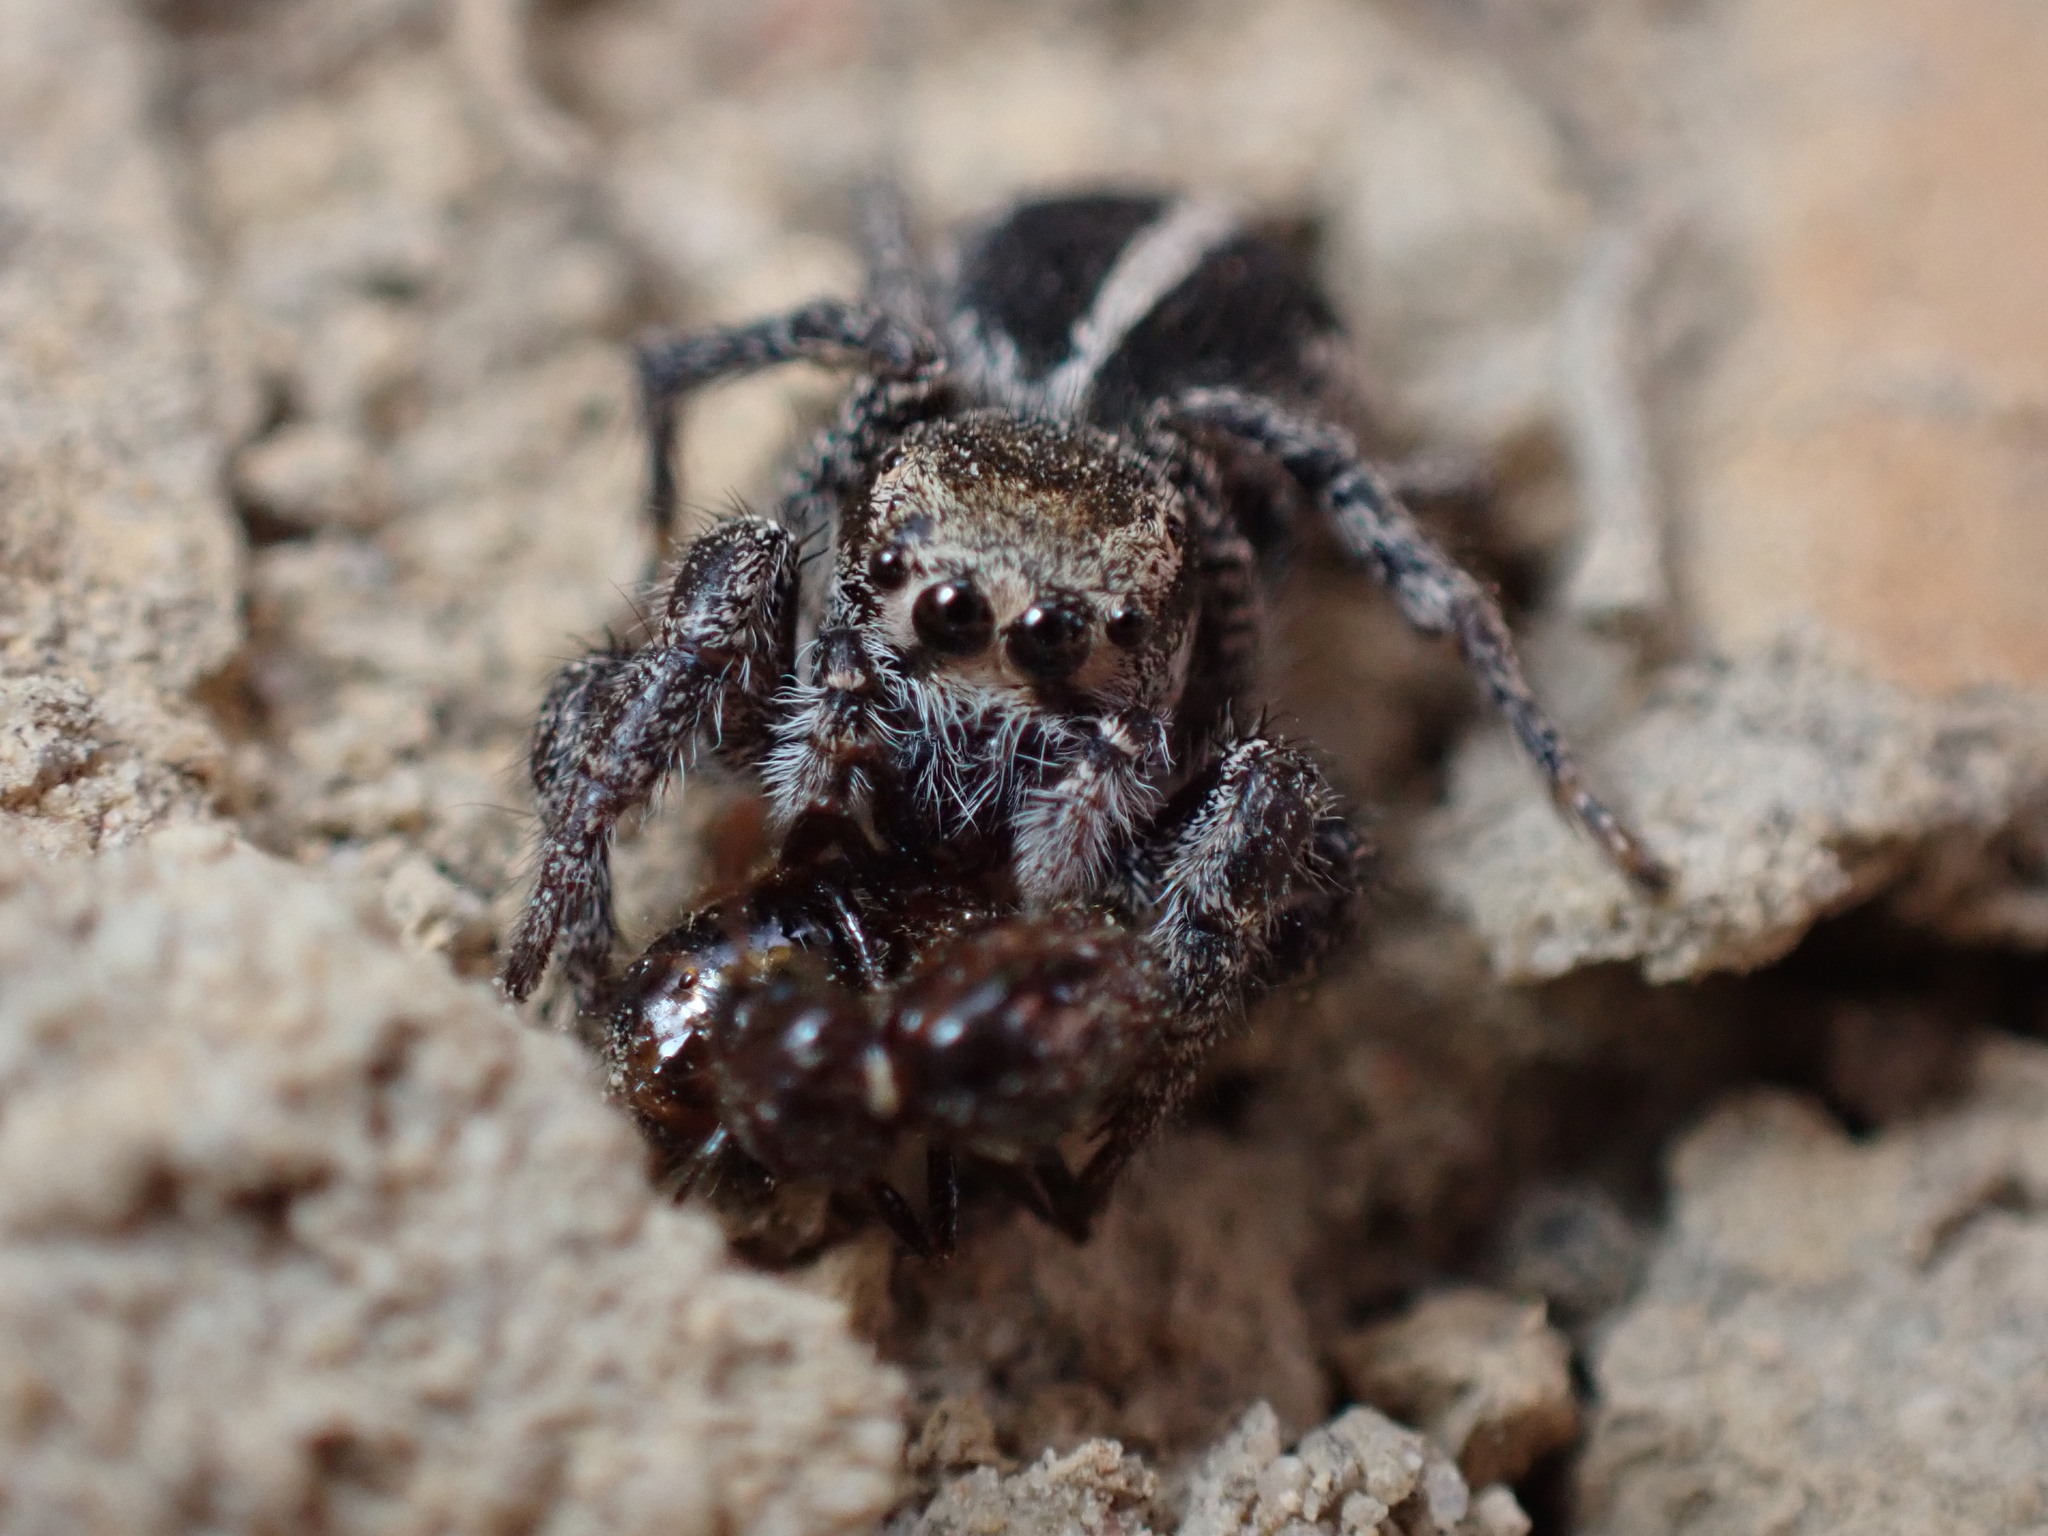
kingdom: Animalia
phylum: Arthropoda
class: Arachnida
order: Araneae
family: Salticidae
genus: Habronattus
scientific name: Habronattus orbus
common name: Orbus paradise spider
